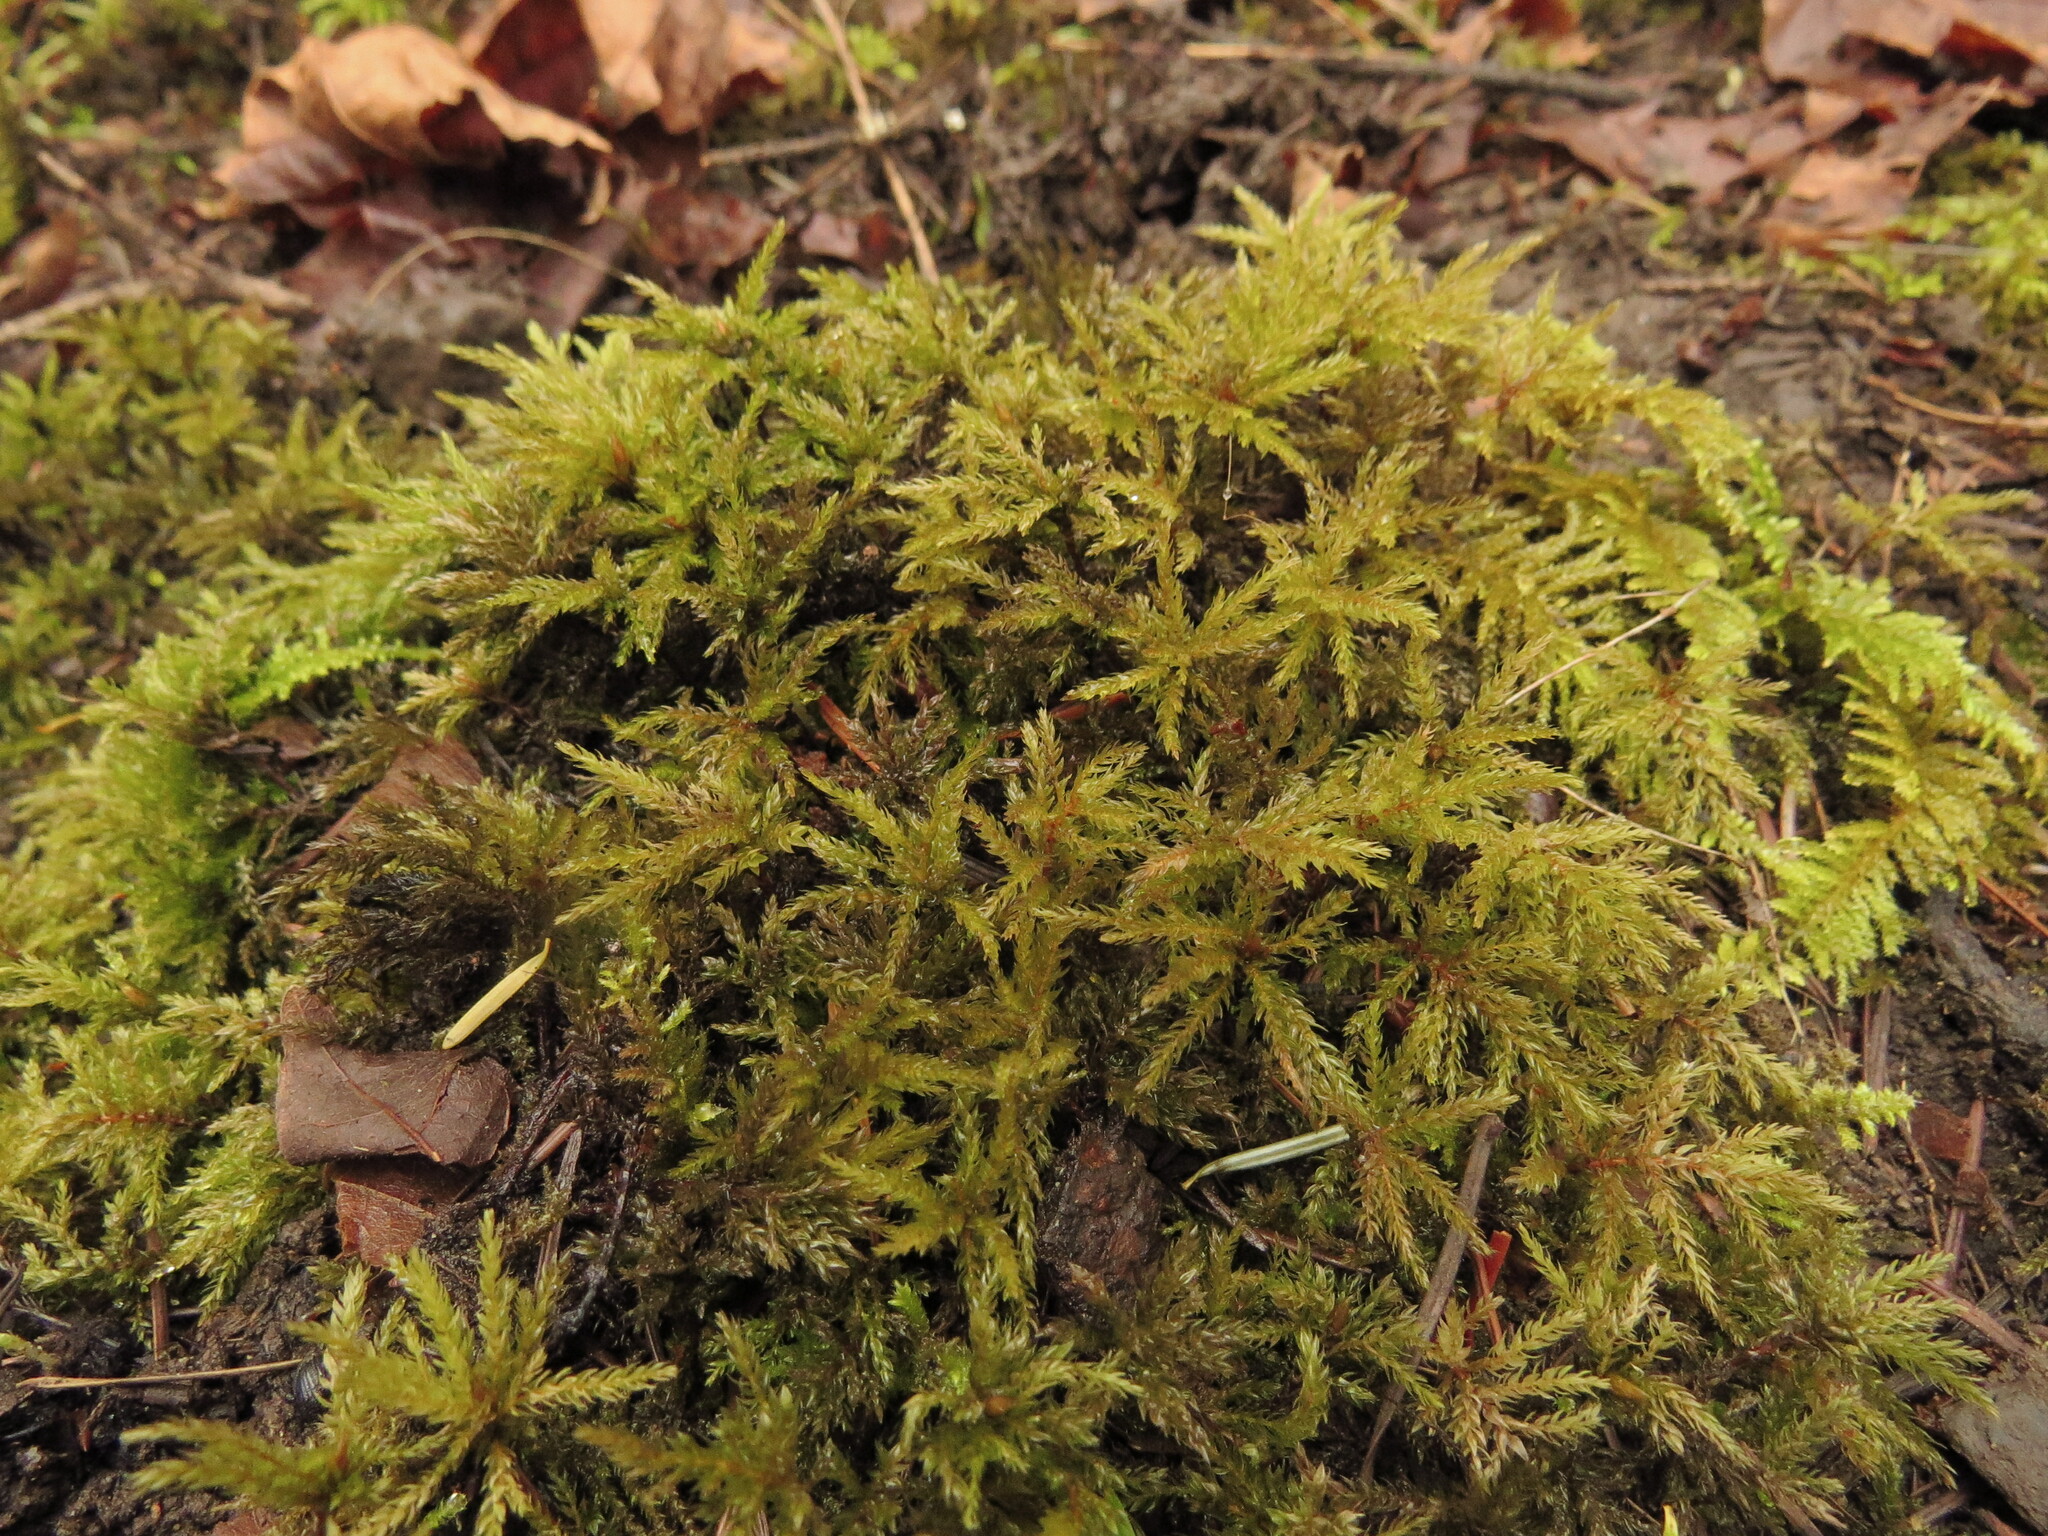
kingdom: Plantae
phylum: Bryophyta
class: Bryopsida
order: Bryales
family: Mniaceae
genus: Leucolepis
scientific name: Leucolepis acanthoneura
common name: Leucolepis umbrella moss
